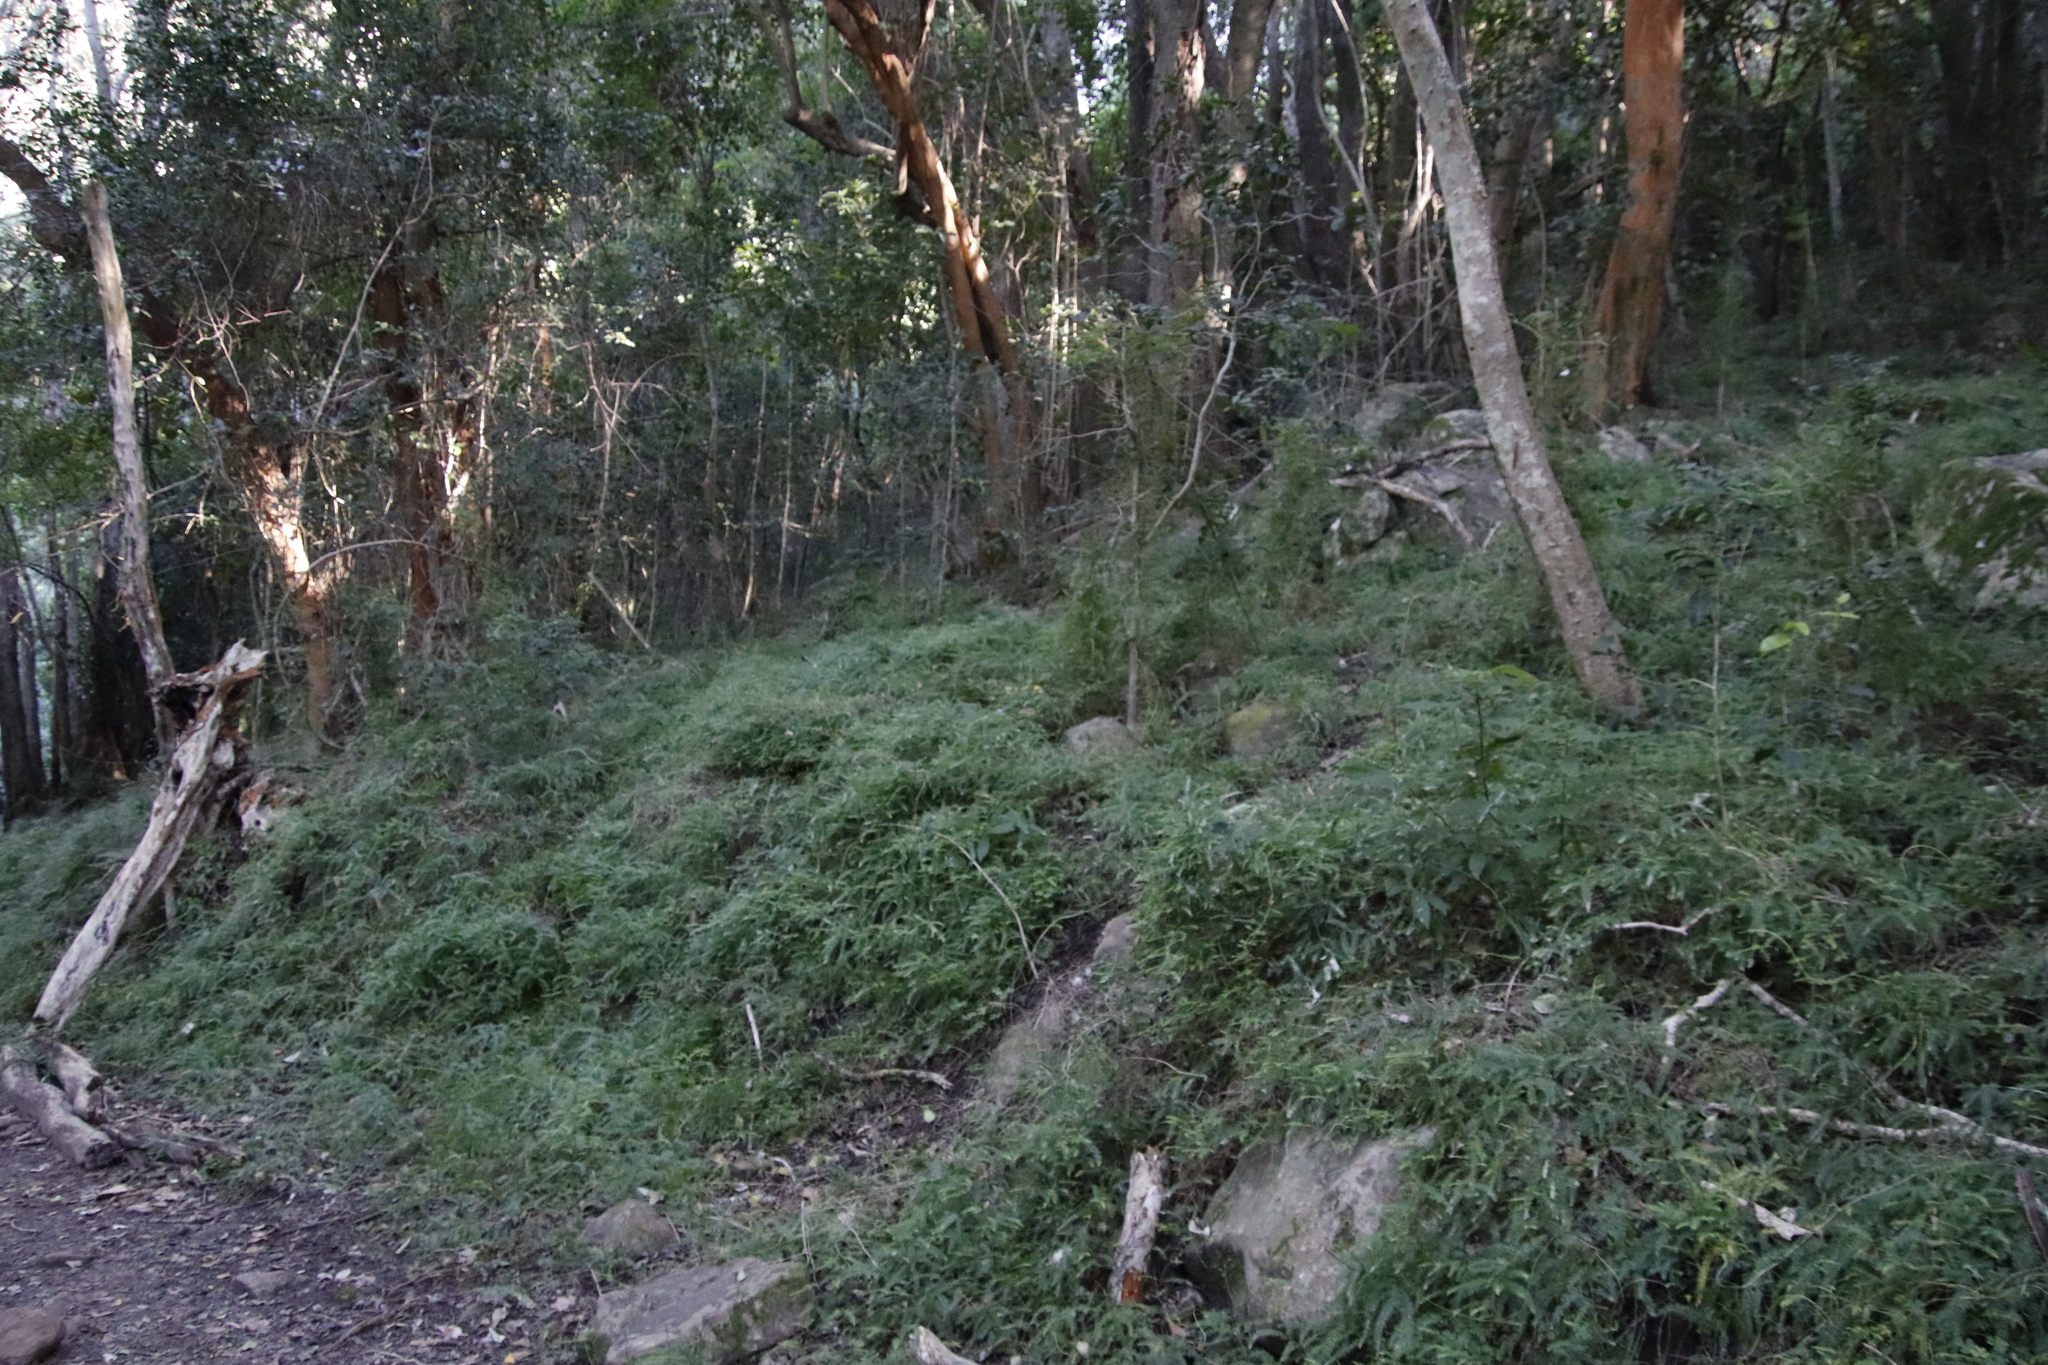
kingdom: Plantae
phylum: Tracheophyta
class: Liliopsida
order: Asparagales
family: Asparagaceae
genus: Asparagus
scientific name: Asparagus scandens
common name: Asparagus-fern
